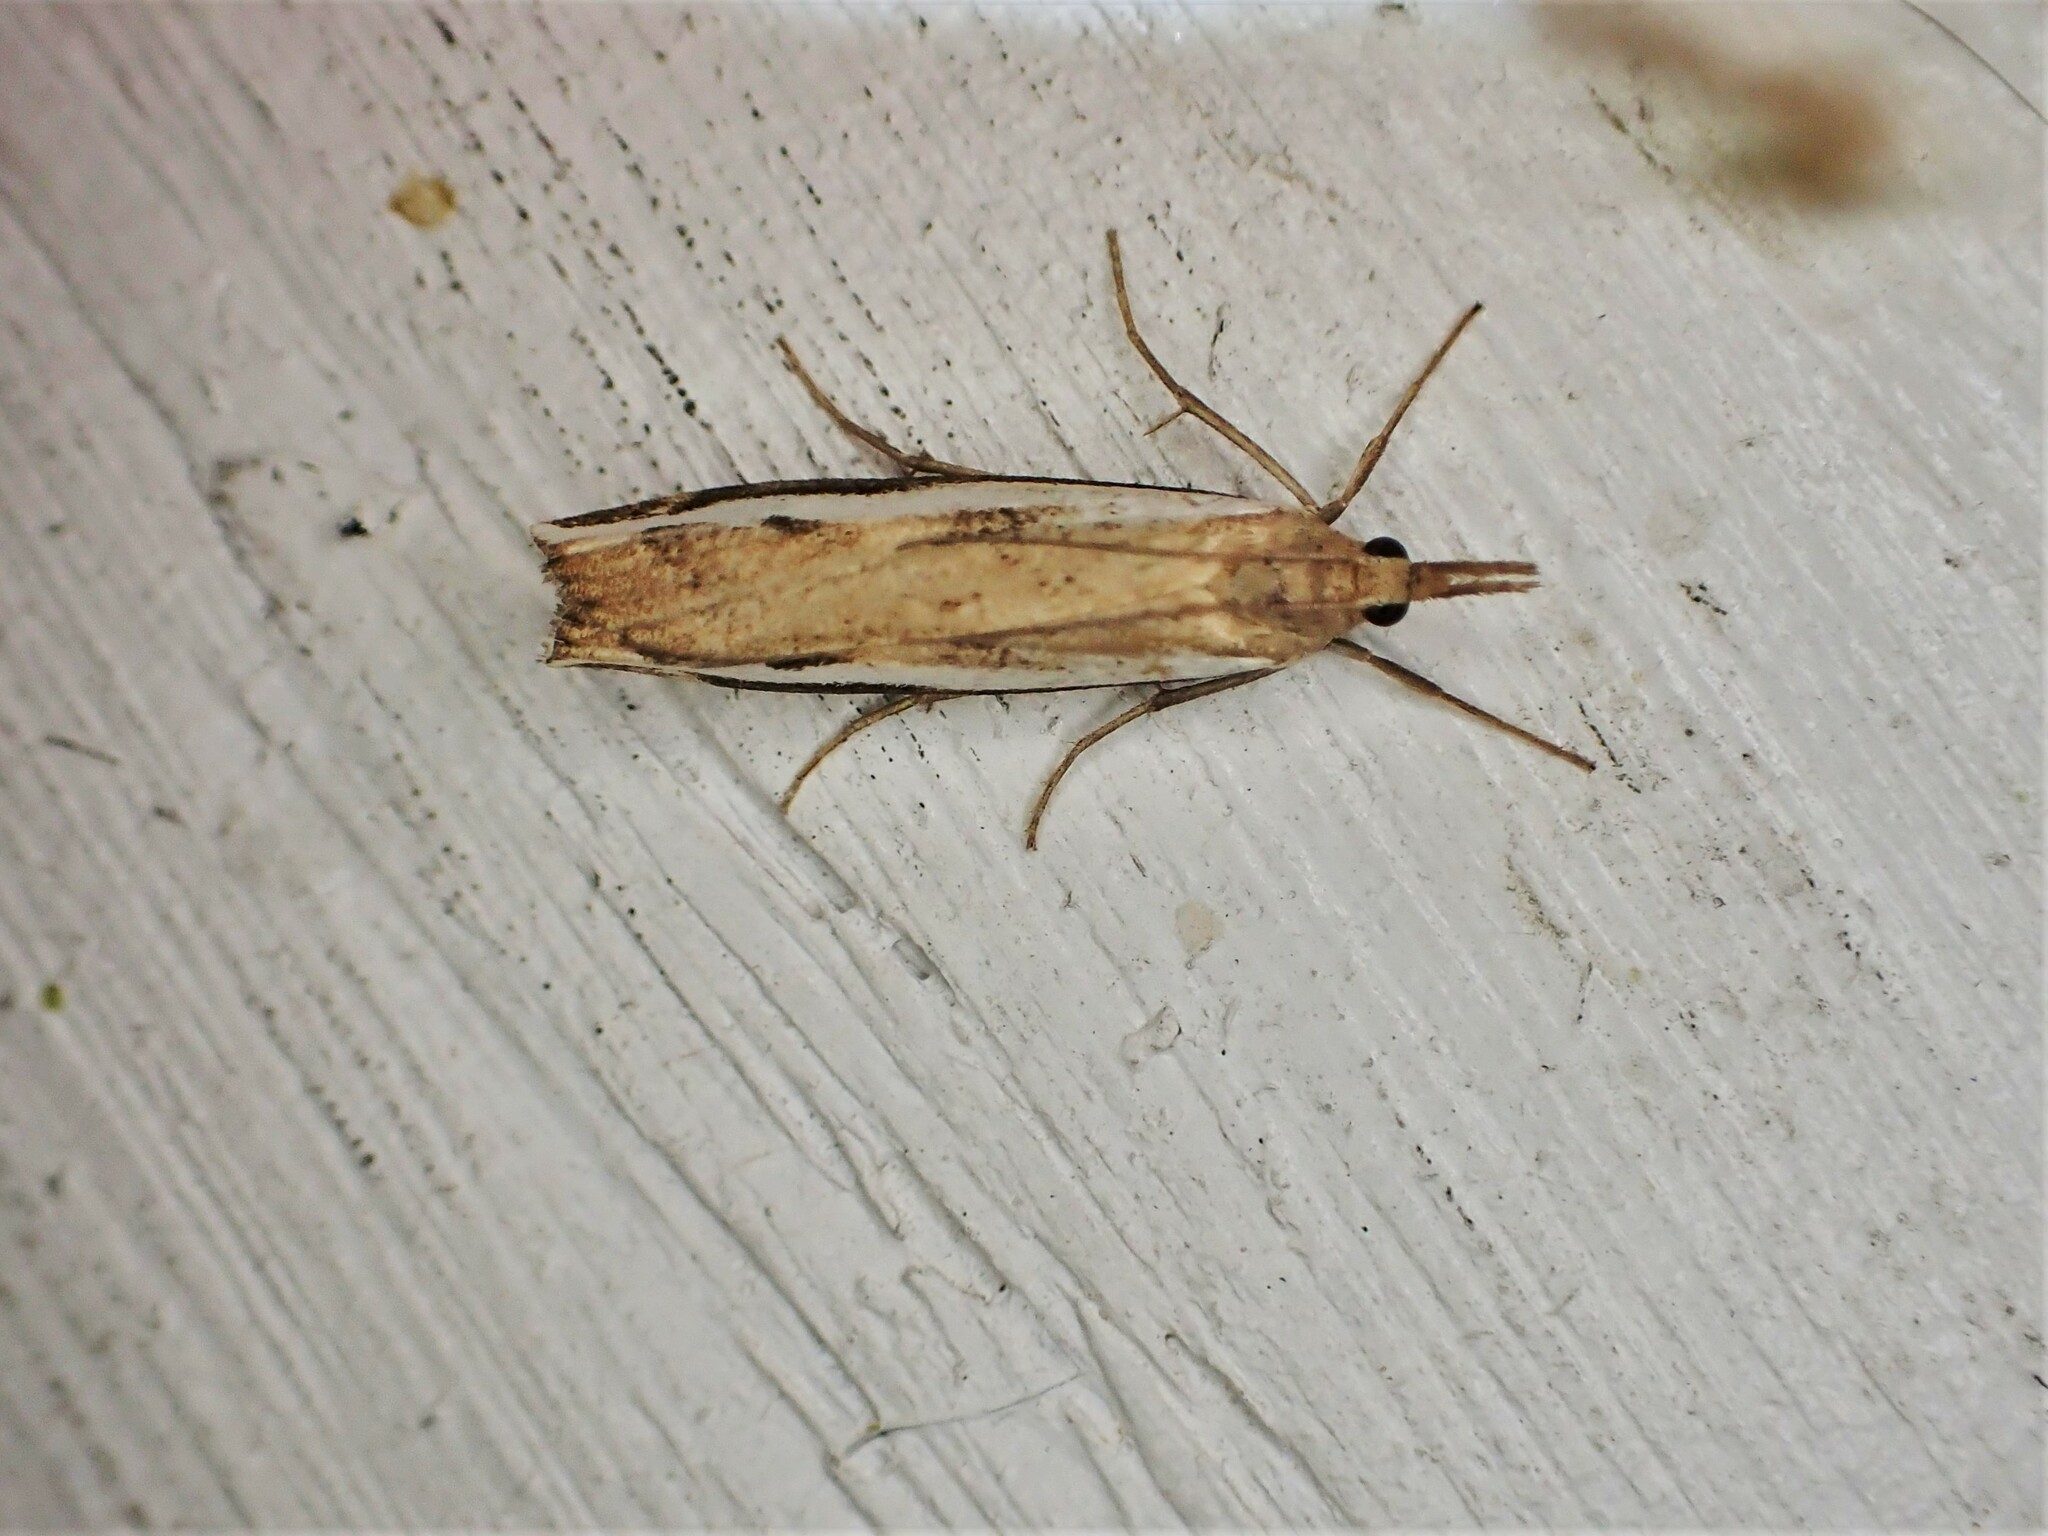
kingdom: Animalia
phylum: Arthropoda
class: Insecta
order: Lepidoptera
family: Crambidae
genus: Orocrambus
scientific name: Orocrambus flexuosellus
